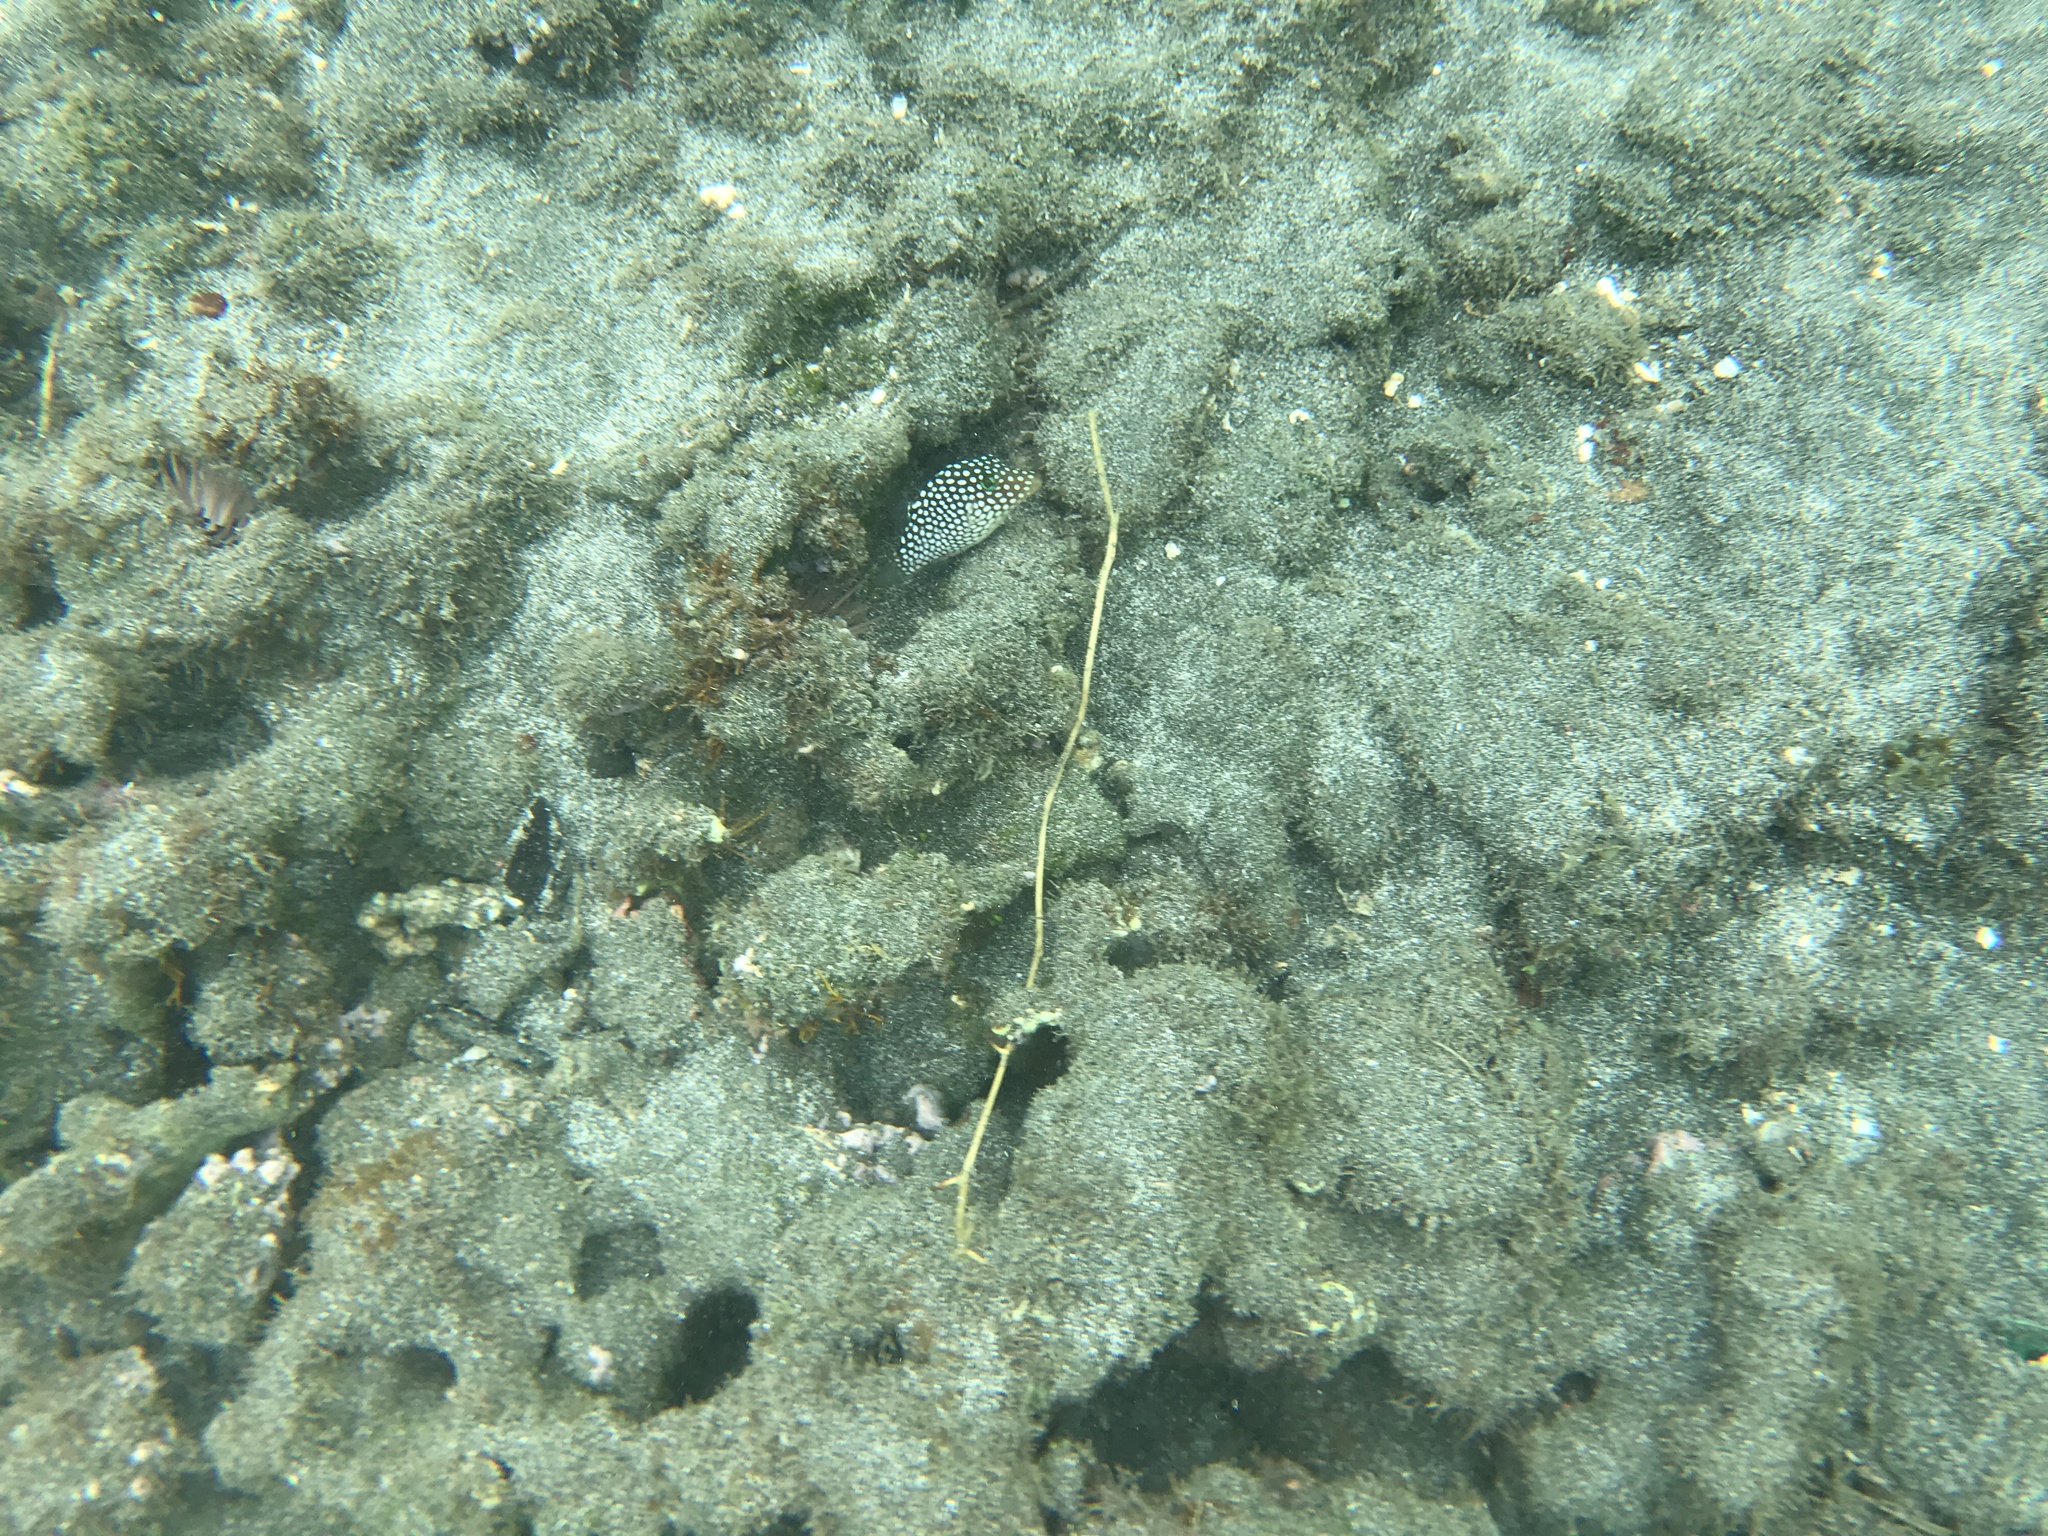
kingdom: Animalia
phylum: Chordata
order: Tetraodontiformes
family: Tetraodontidae
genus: Canthigaster
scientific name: Canthigaster jactator
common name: Hawaiian whitespotted toby
